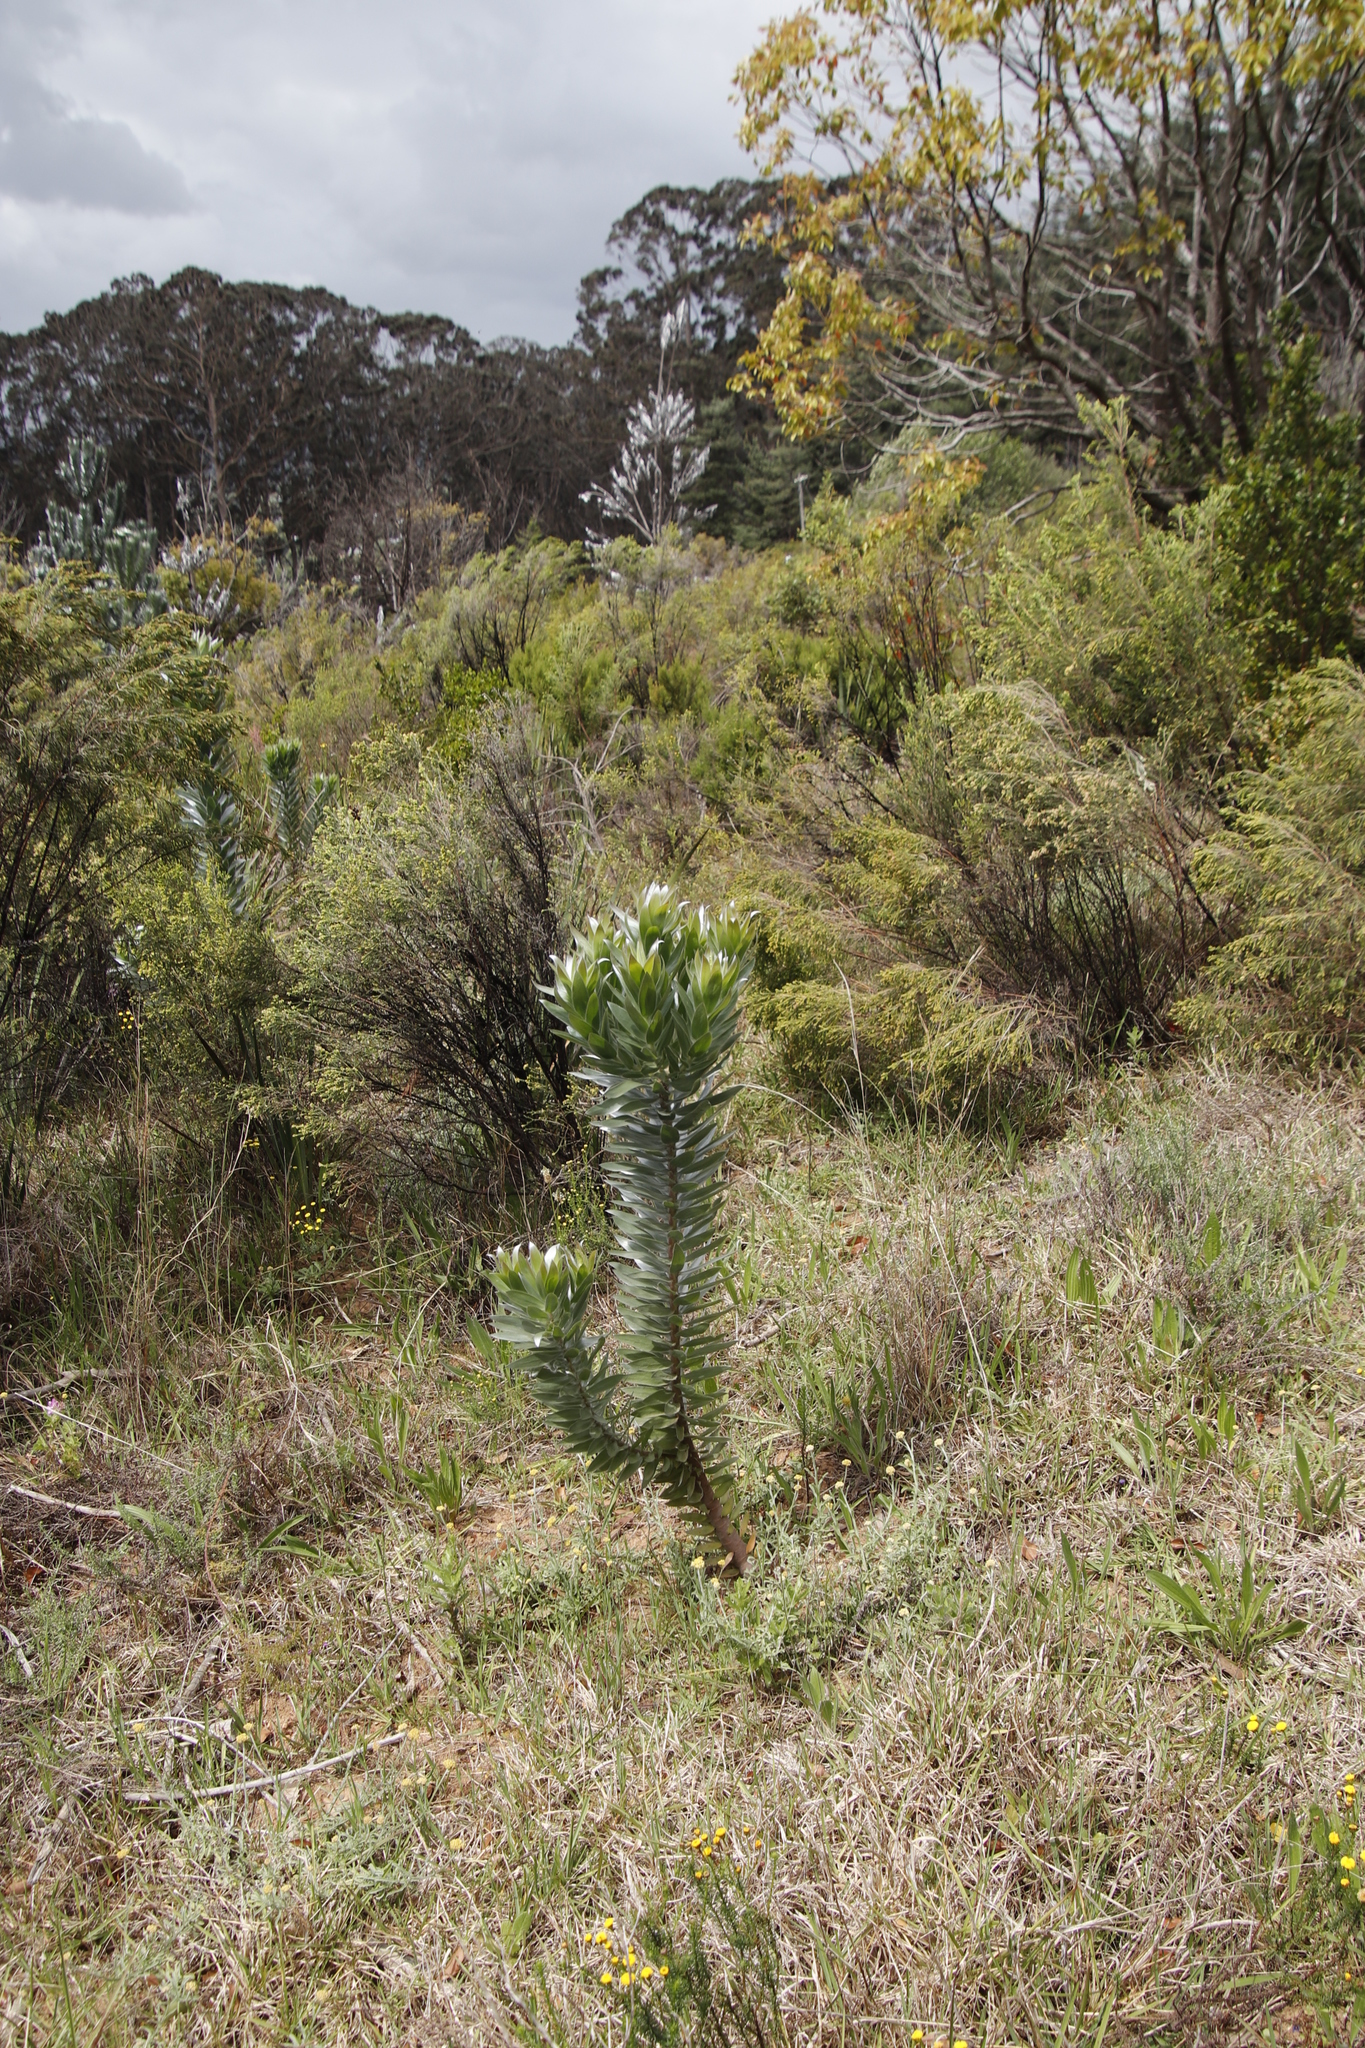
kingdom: Plantae
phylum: Tracheophyta
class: Magnoliopsida
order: Proteales
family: Proteaceae
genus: Leucadendron
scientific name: Leucadendron argenteum
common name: Cape silver tree
